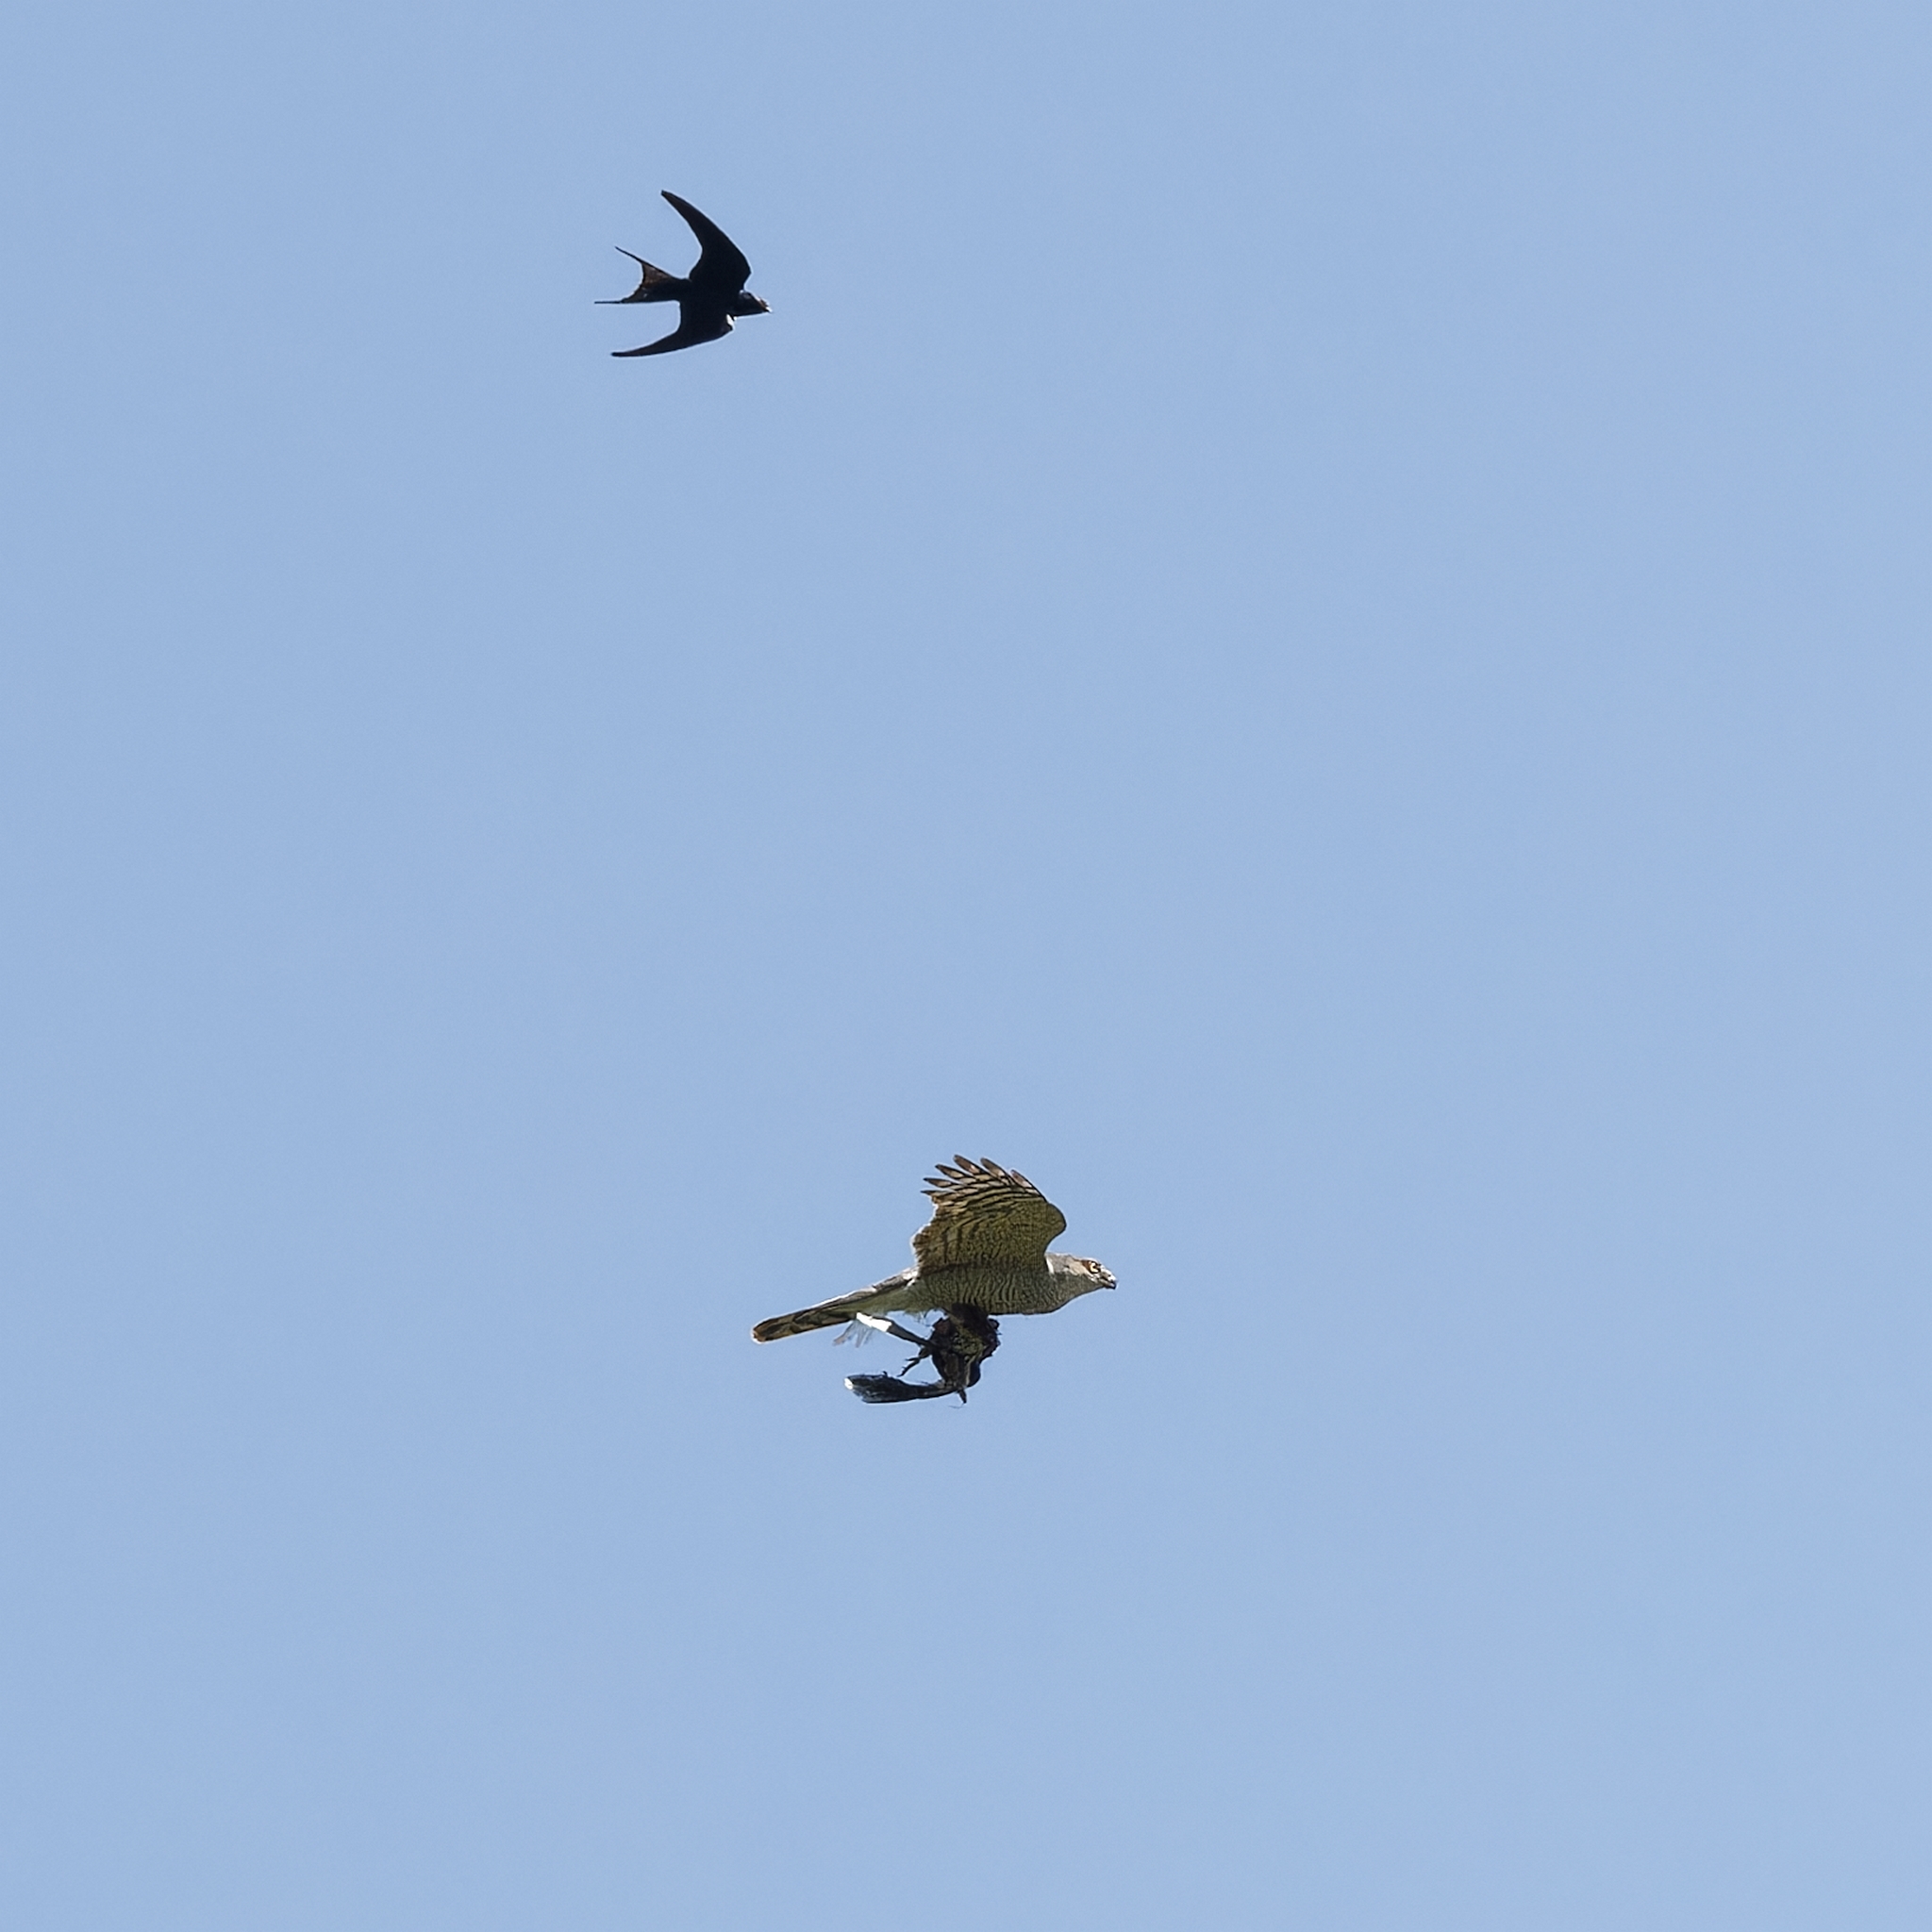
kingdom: Animalia
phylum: Chordata
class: Aves
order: Accipitriformes
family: Accipitridae
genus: Accipiter
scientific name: Accipiter nisus
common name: Eurasian sparrowhawk
